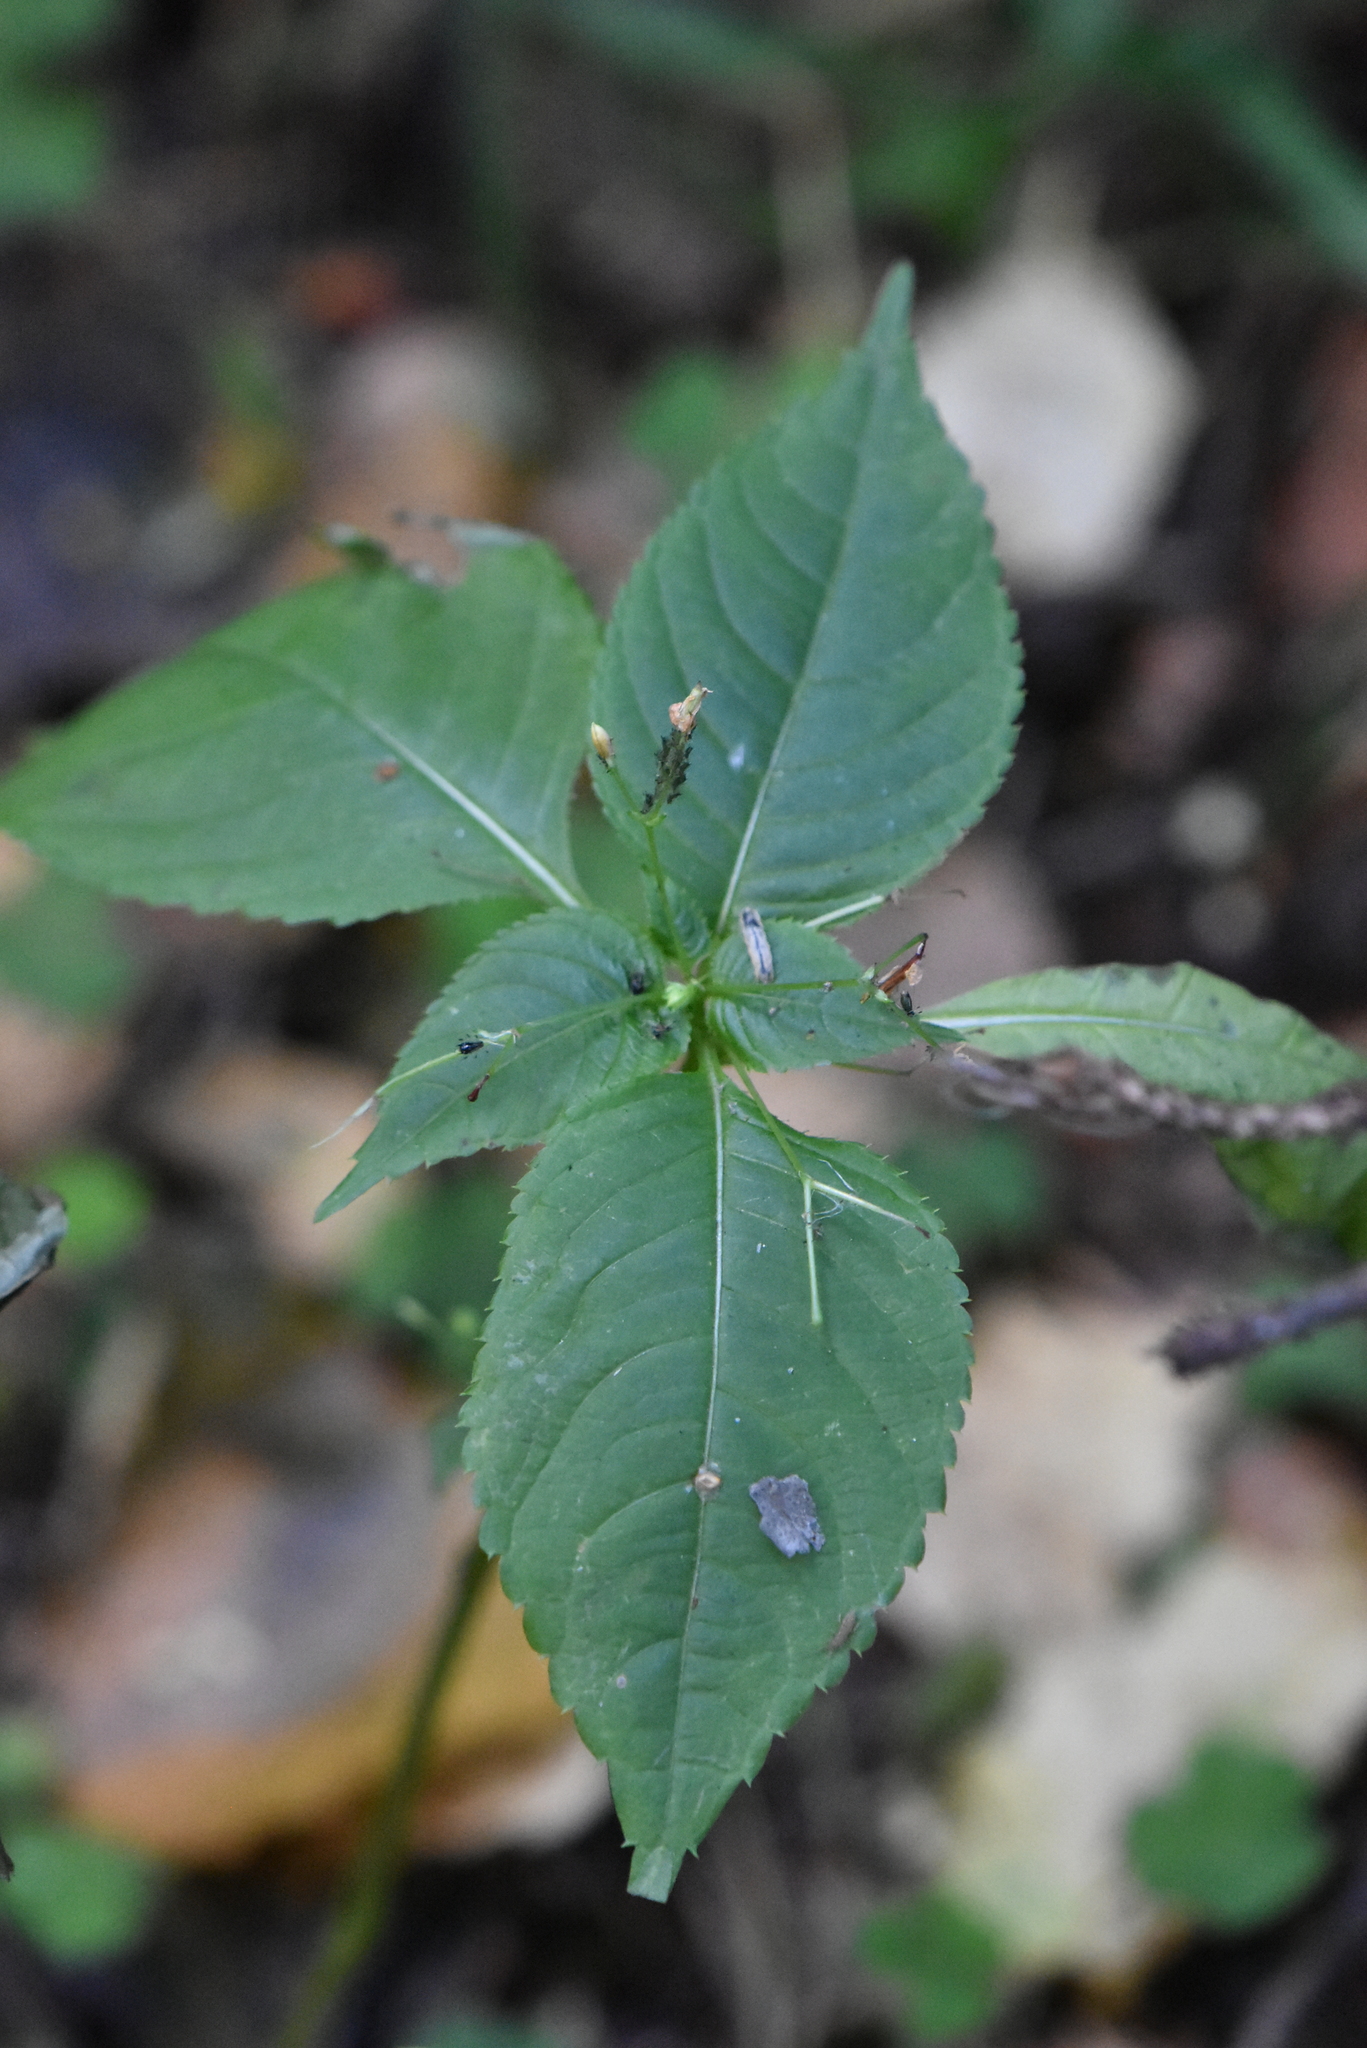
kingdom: Plantae
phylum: Tracheophyta
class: Magnoliopsida
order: Ericales
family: Balsaminaceae
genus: Impatiens
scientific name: Impatiens parviflora
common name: Small balsam
